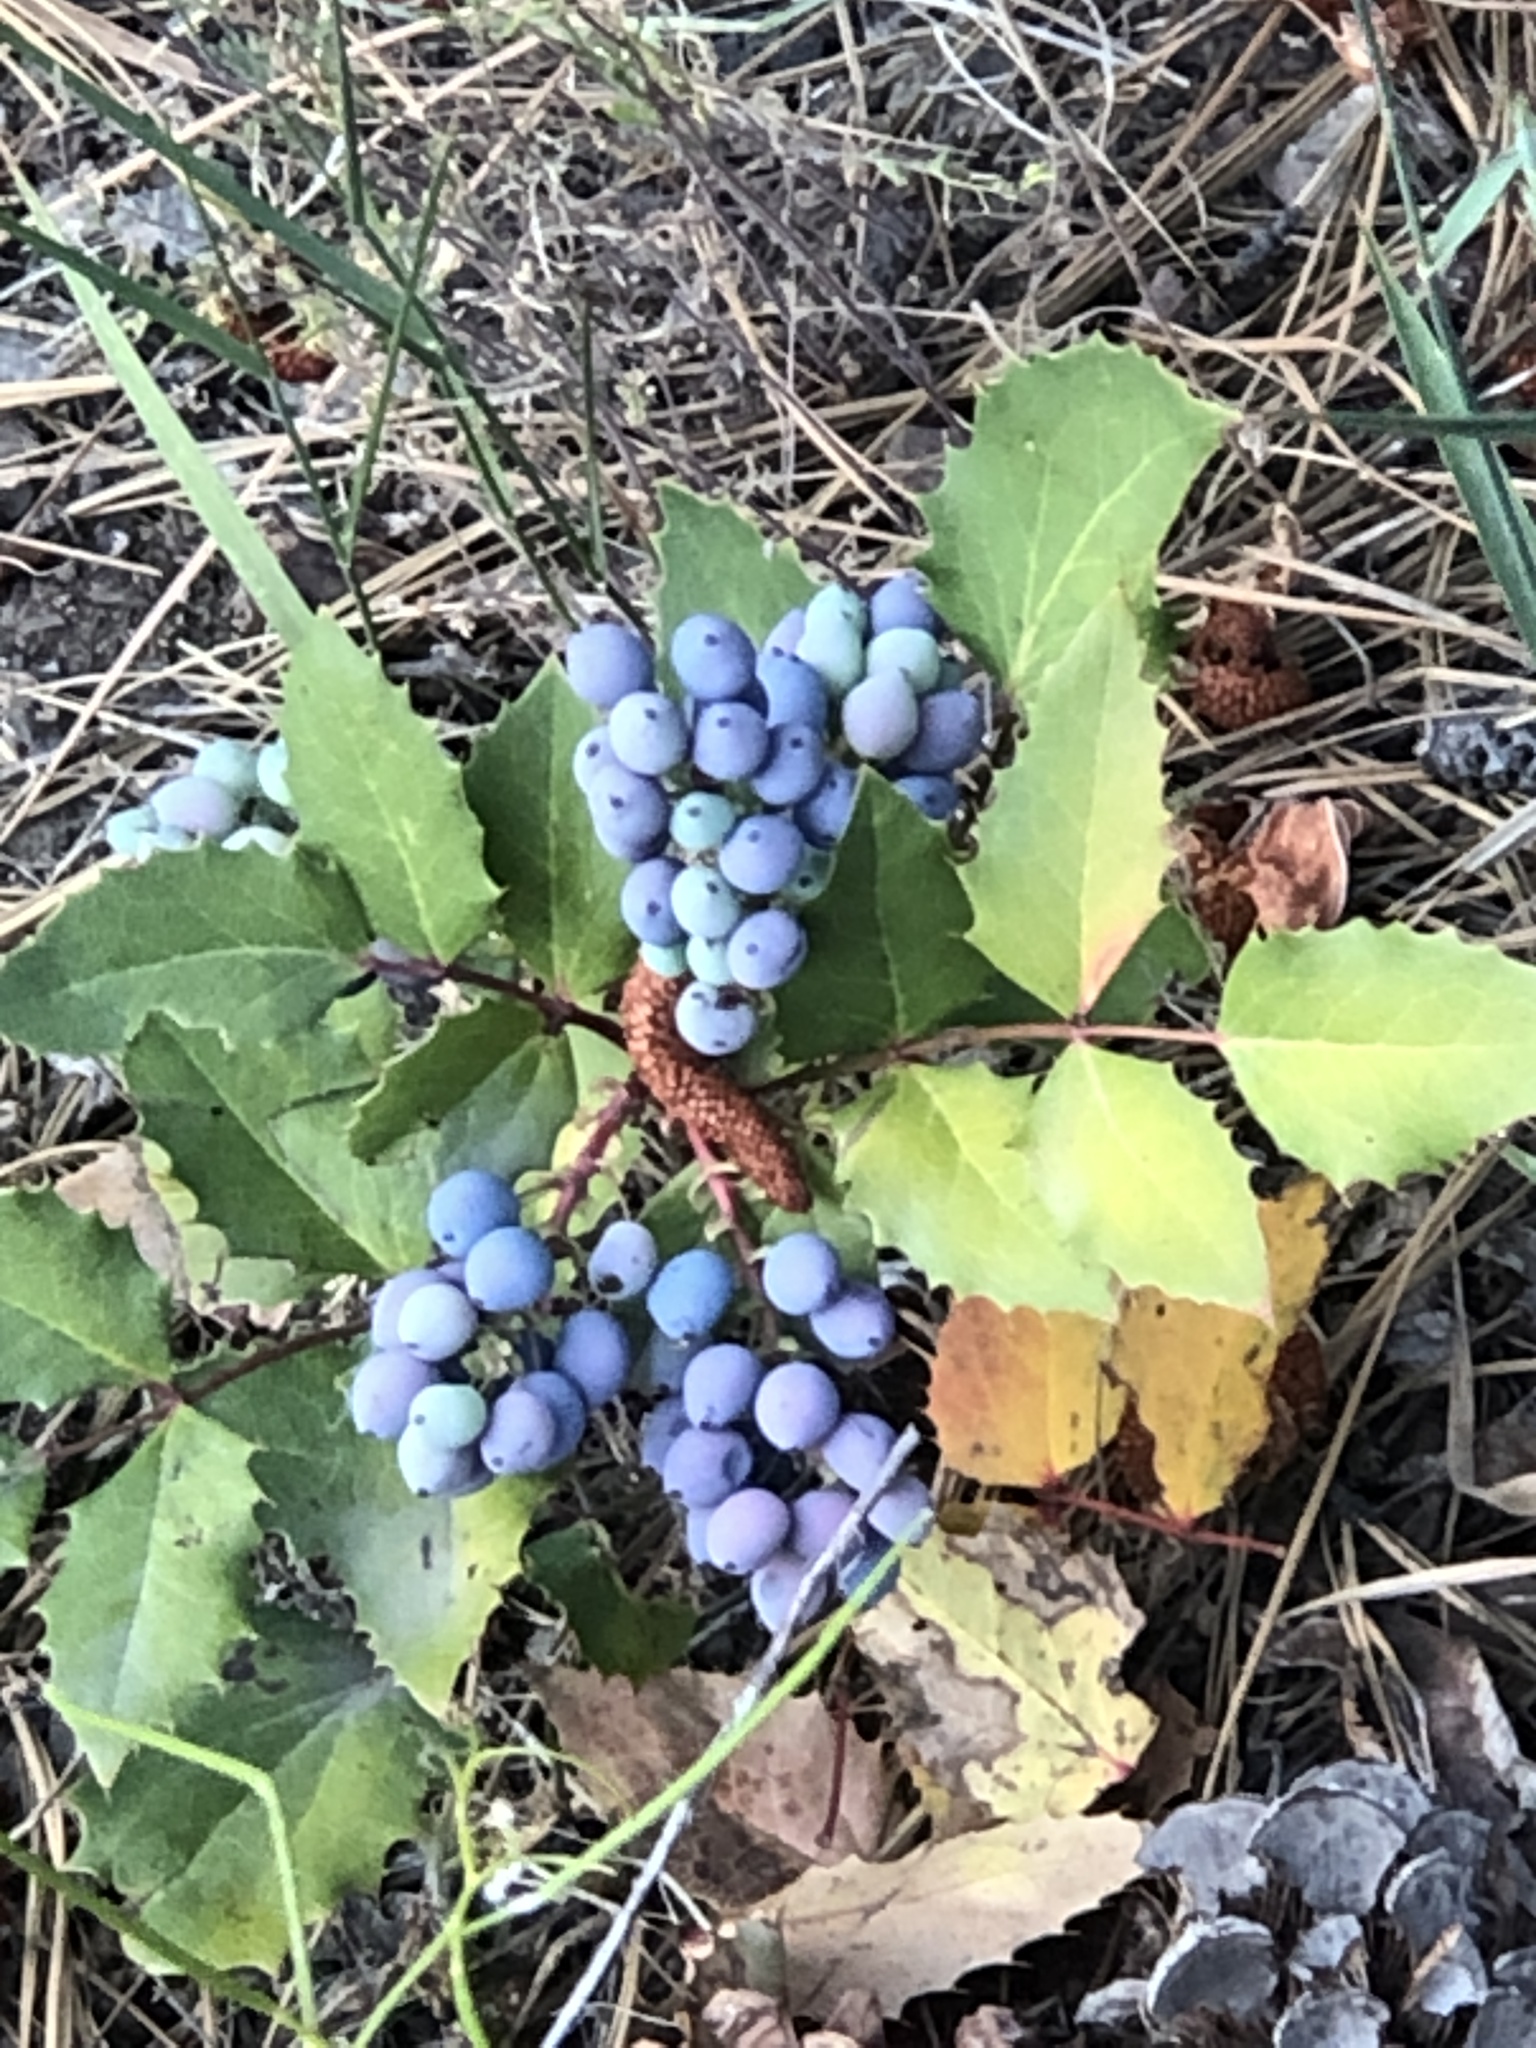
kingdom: Plantae
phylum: Tracheophyta
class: Magnoliopsida
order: Ranunculales
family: Berberidaceae
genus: Mahonia
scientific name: Mahonia repens
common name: Creeping oregon-grape
